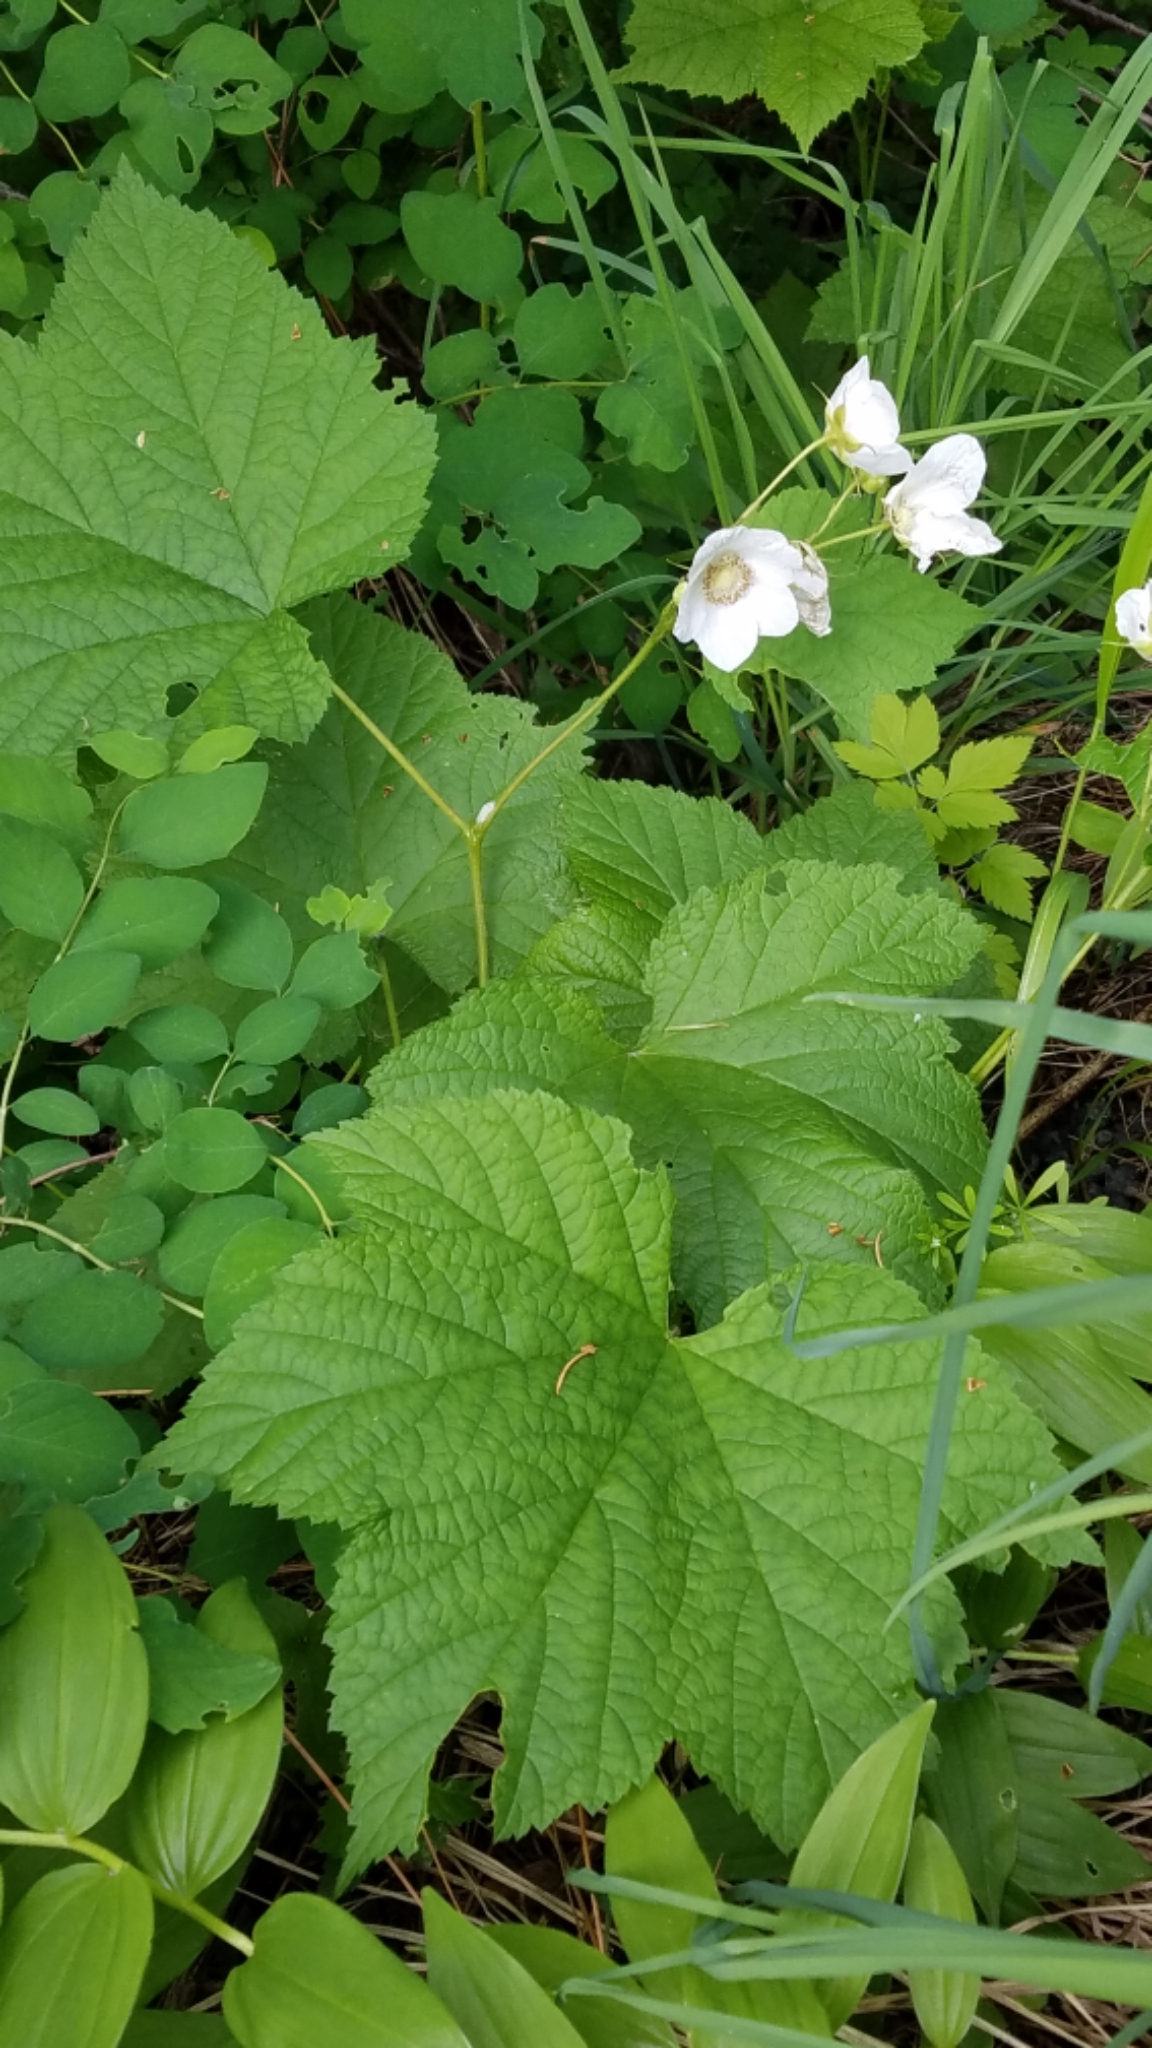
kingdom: Plantae
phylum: Tracheophyta
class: Magnoliopsida
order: Rosales
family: Rosaceae
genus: Rubus
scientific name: Rubus parviflorus
